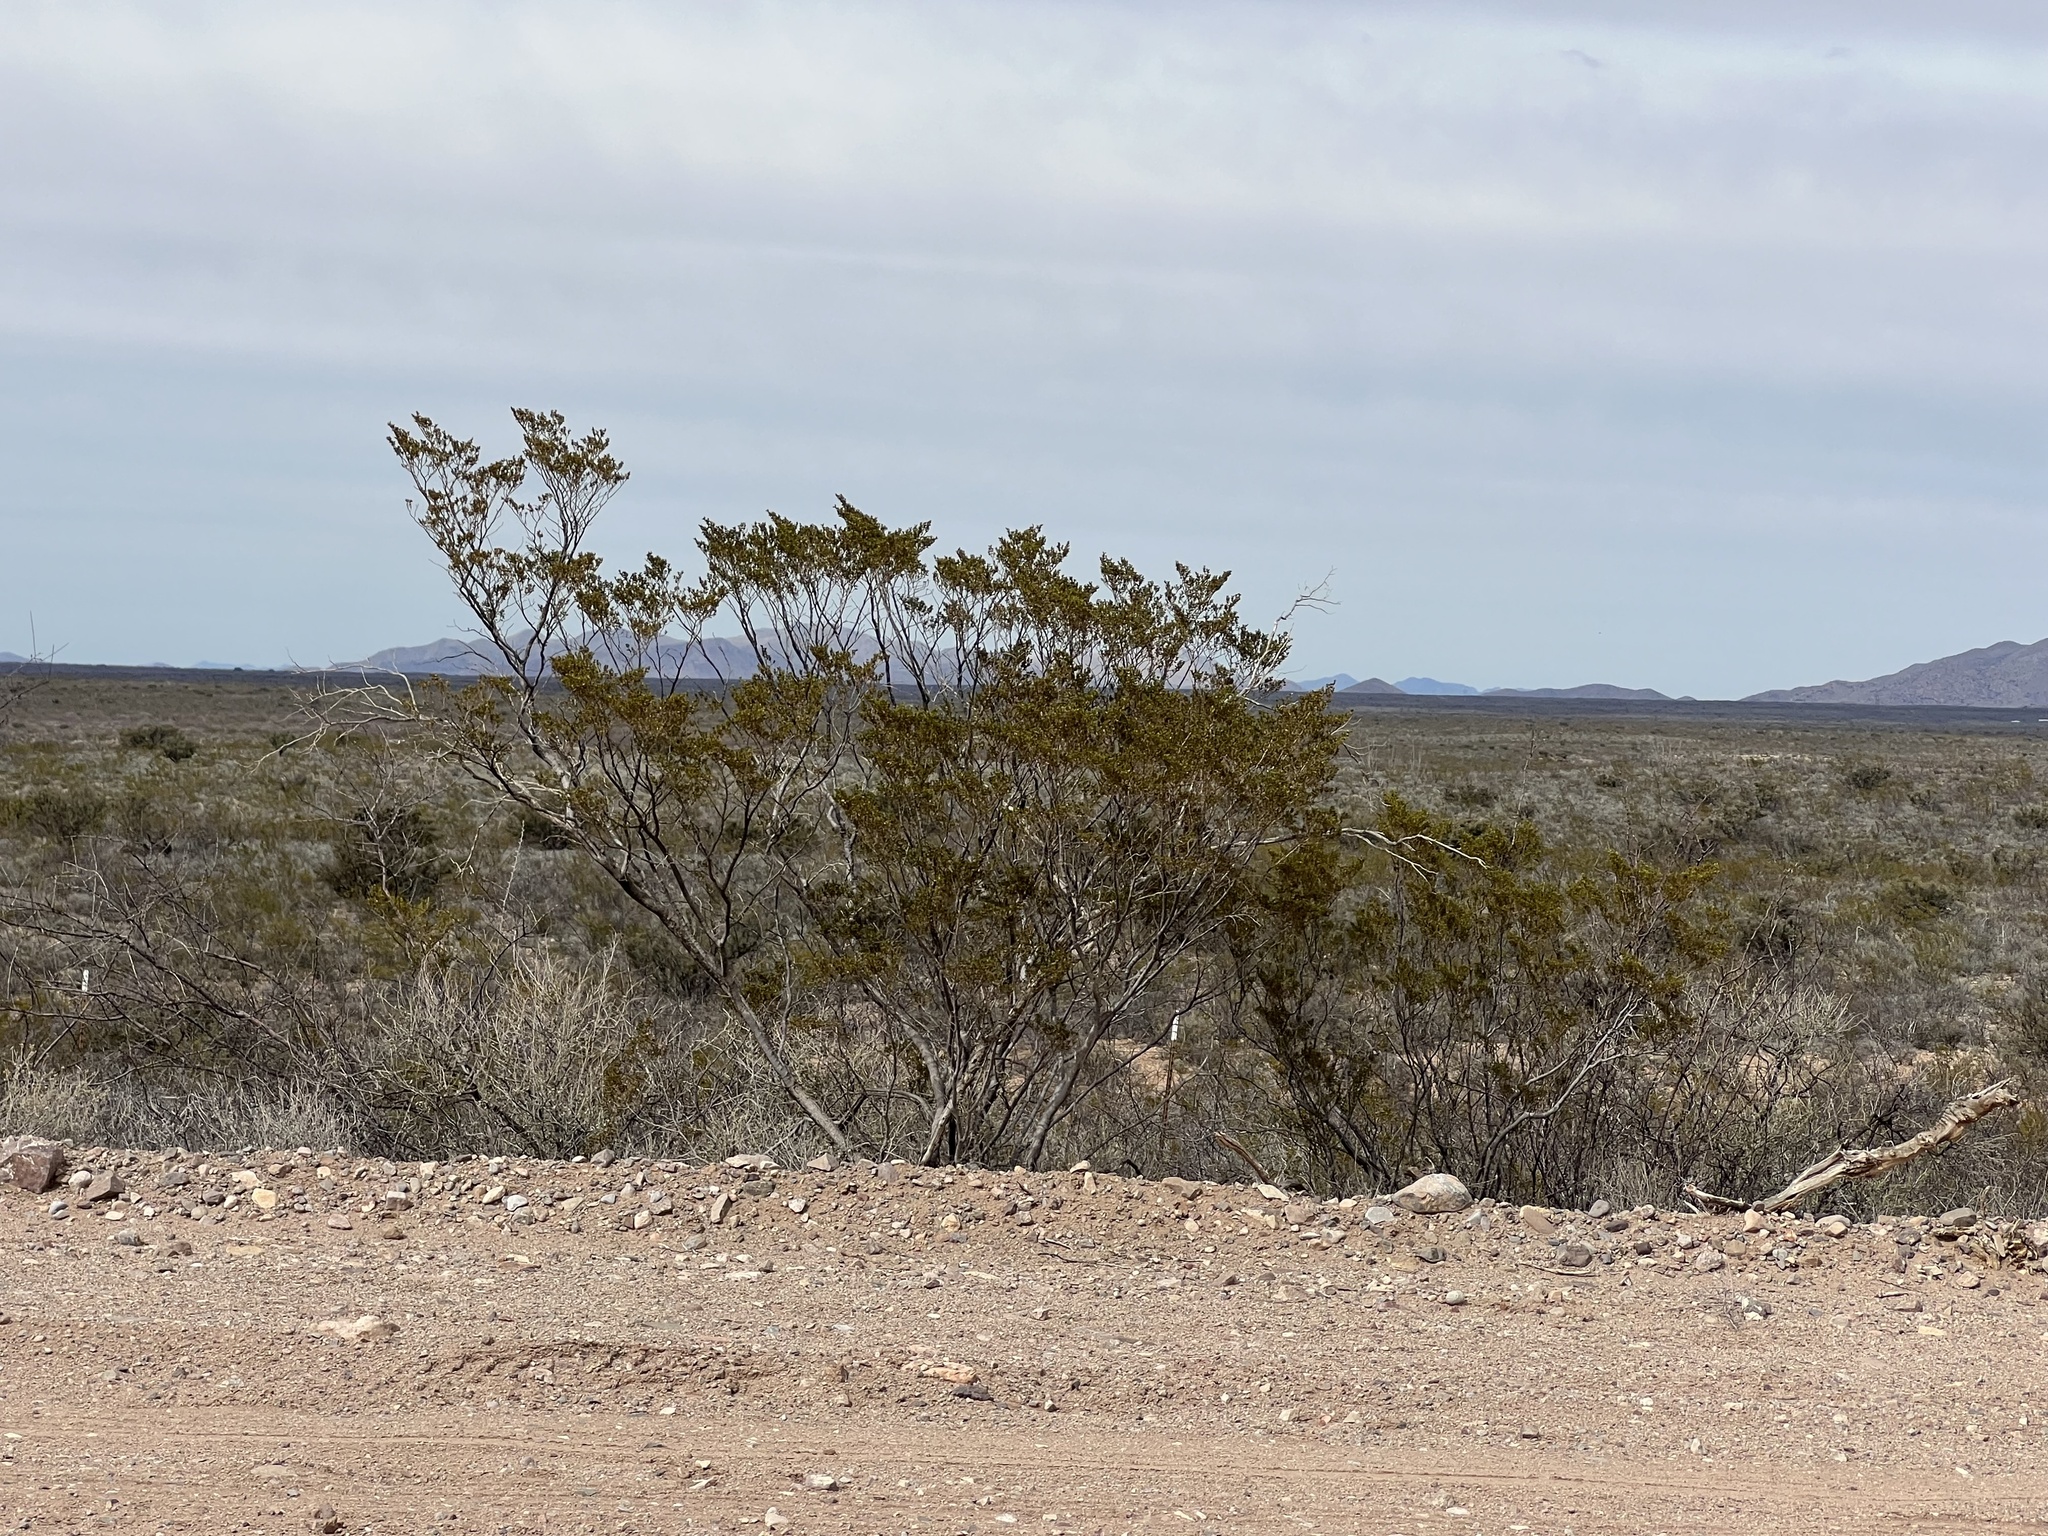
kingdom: Plantae
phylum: Tracheophyta
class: Magnoliopsida
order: Zygophyllales
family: Zygophyllaceae
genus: Larrea
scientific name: Larrea tridentata
